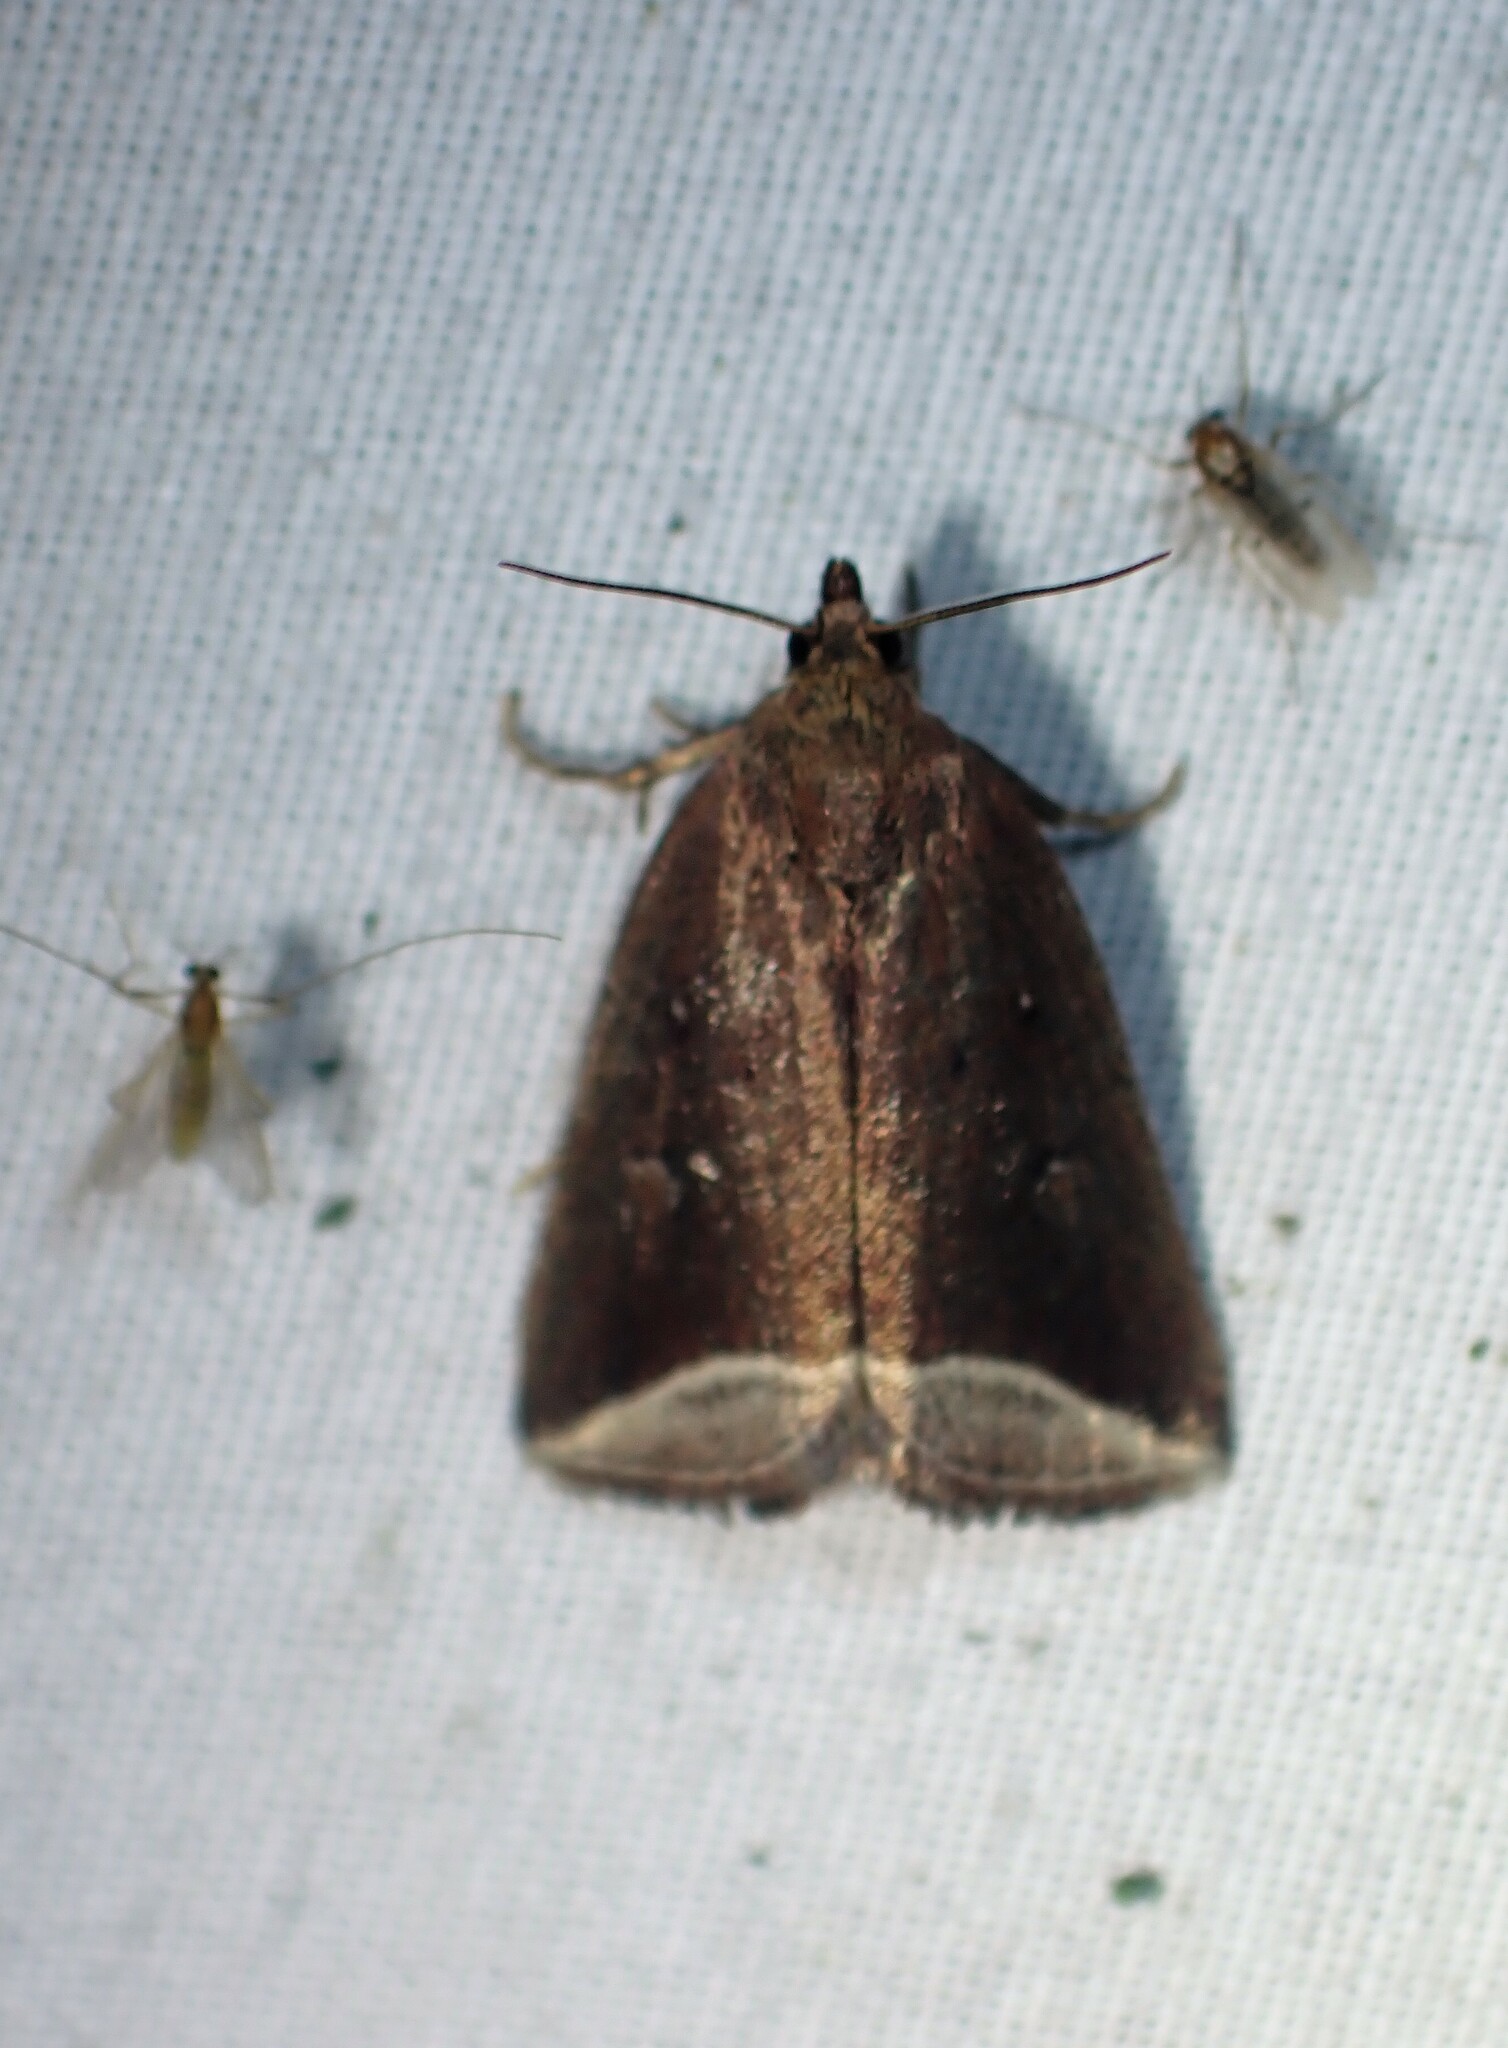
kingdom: Animalia
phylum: Arthropoda
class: Insecta
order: Lepidoptera
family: Erebidae
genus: Capis
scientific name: Capis curvata
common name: Curved halter moth
